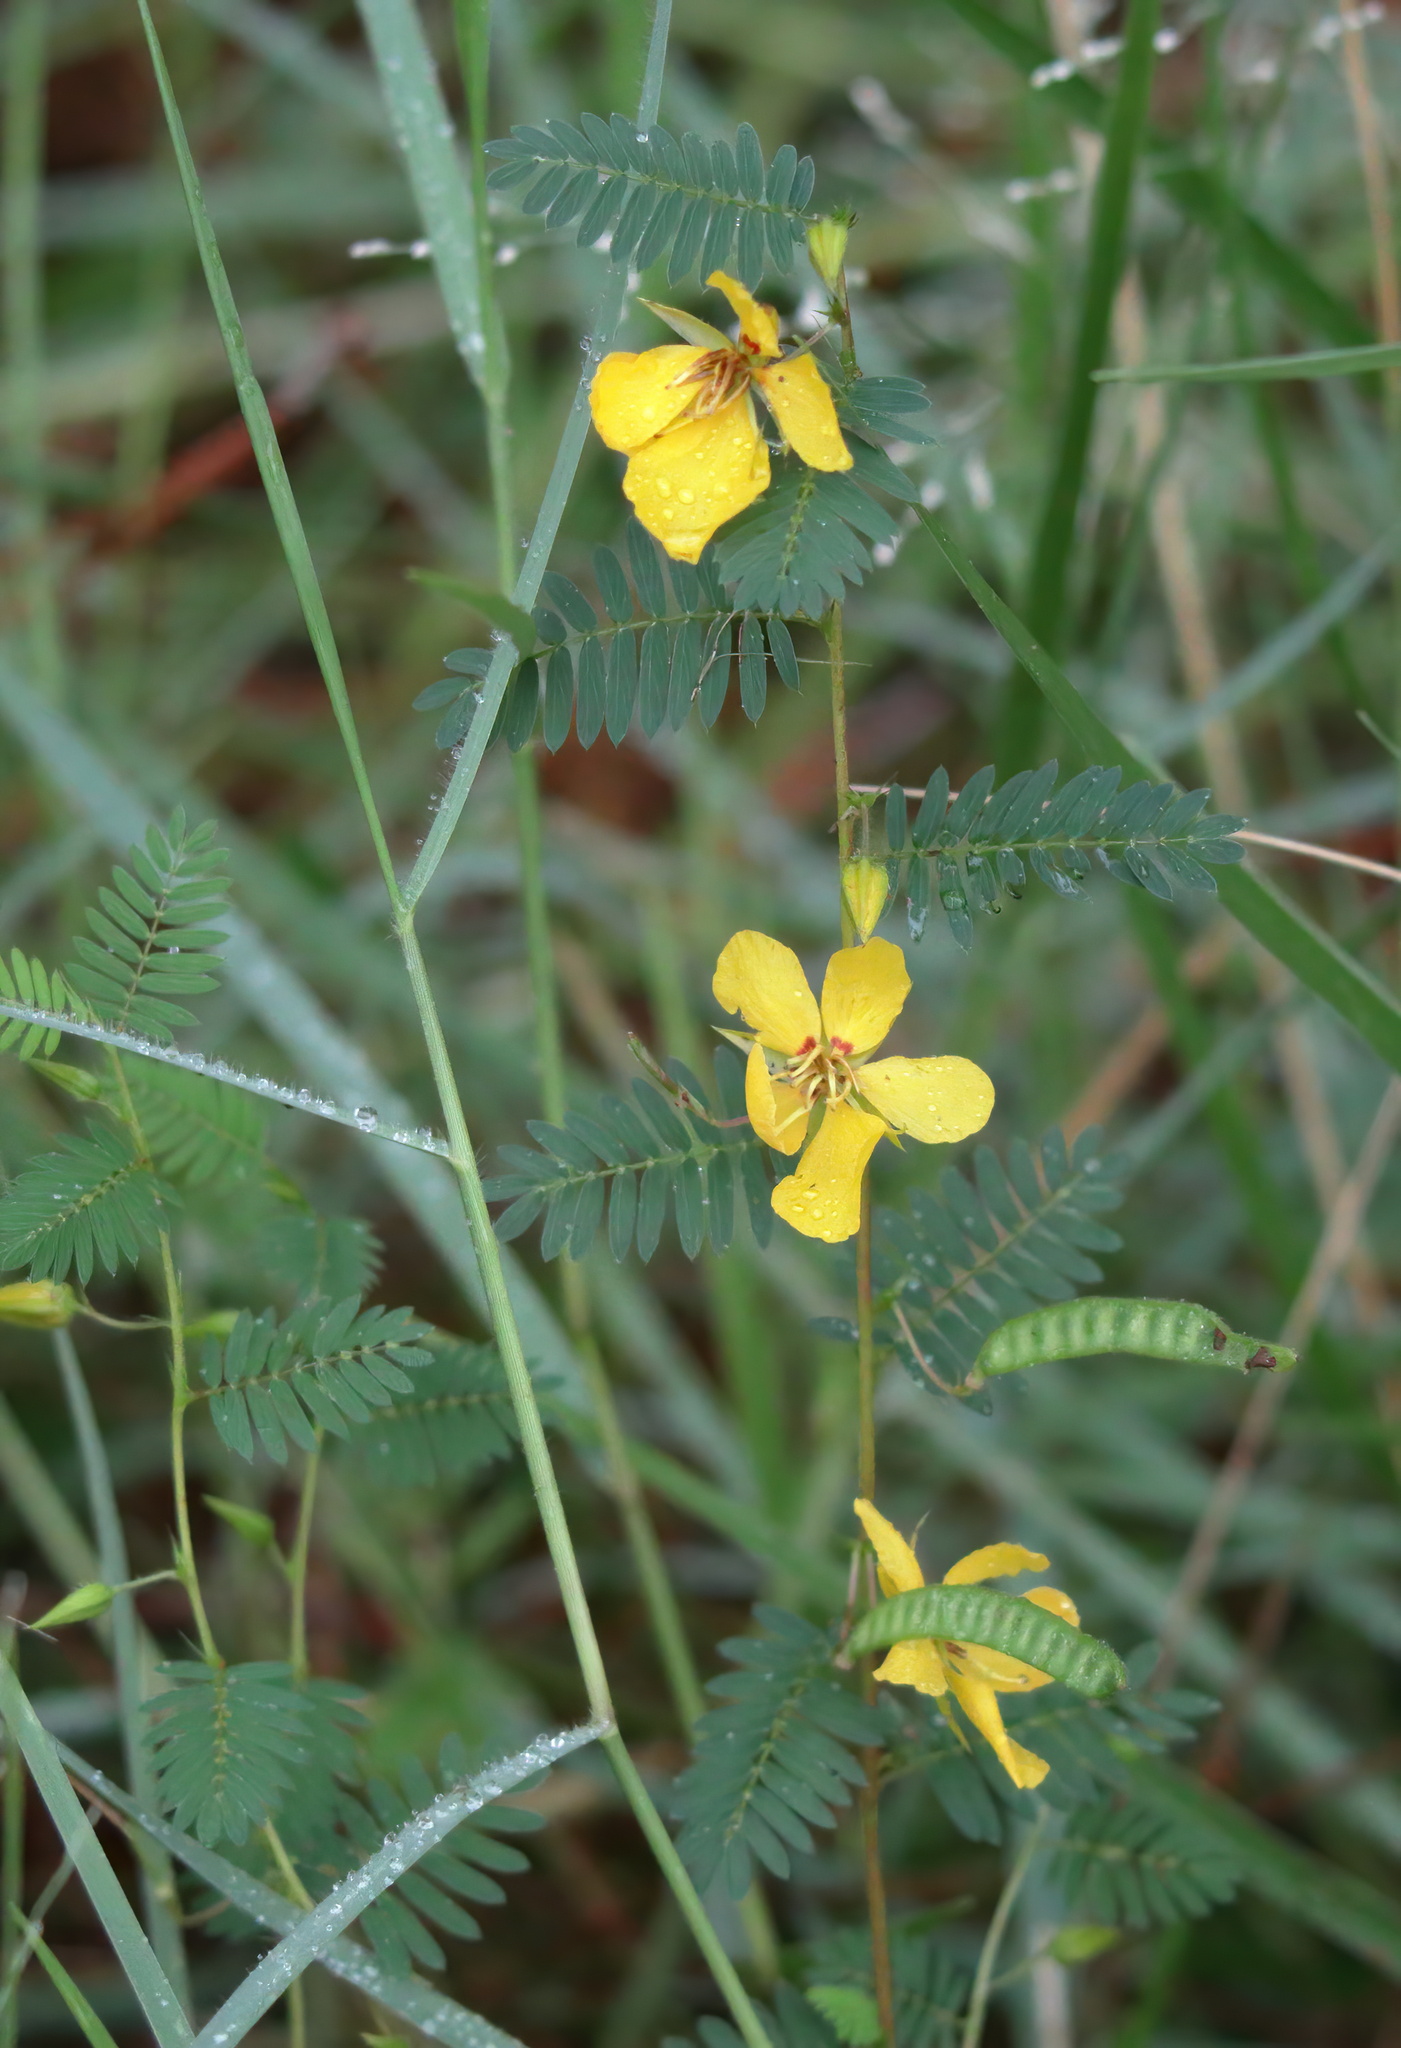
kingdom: Plantae
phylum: Tracheophyta
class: Magnoliopsida
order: Fabales
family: Fabaceae
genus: Chamaecrista
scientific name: Chamaecrista fasciculata
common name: Golden cassia
